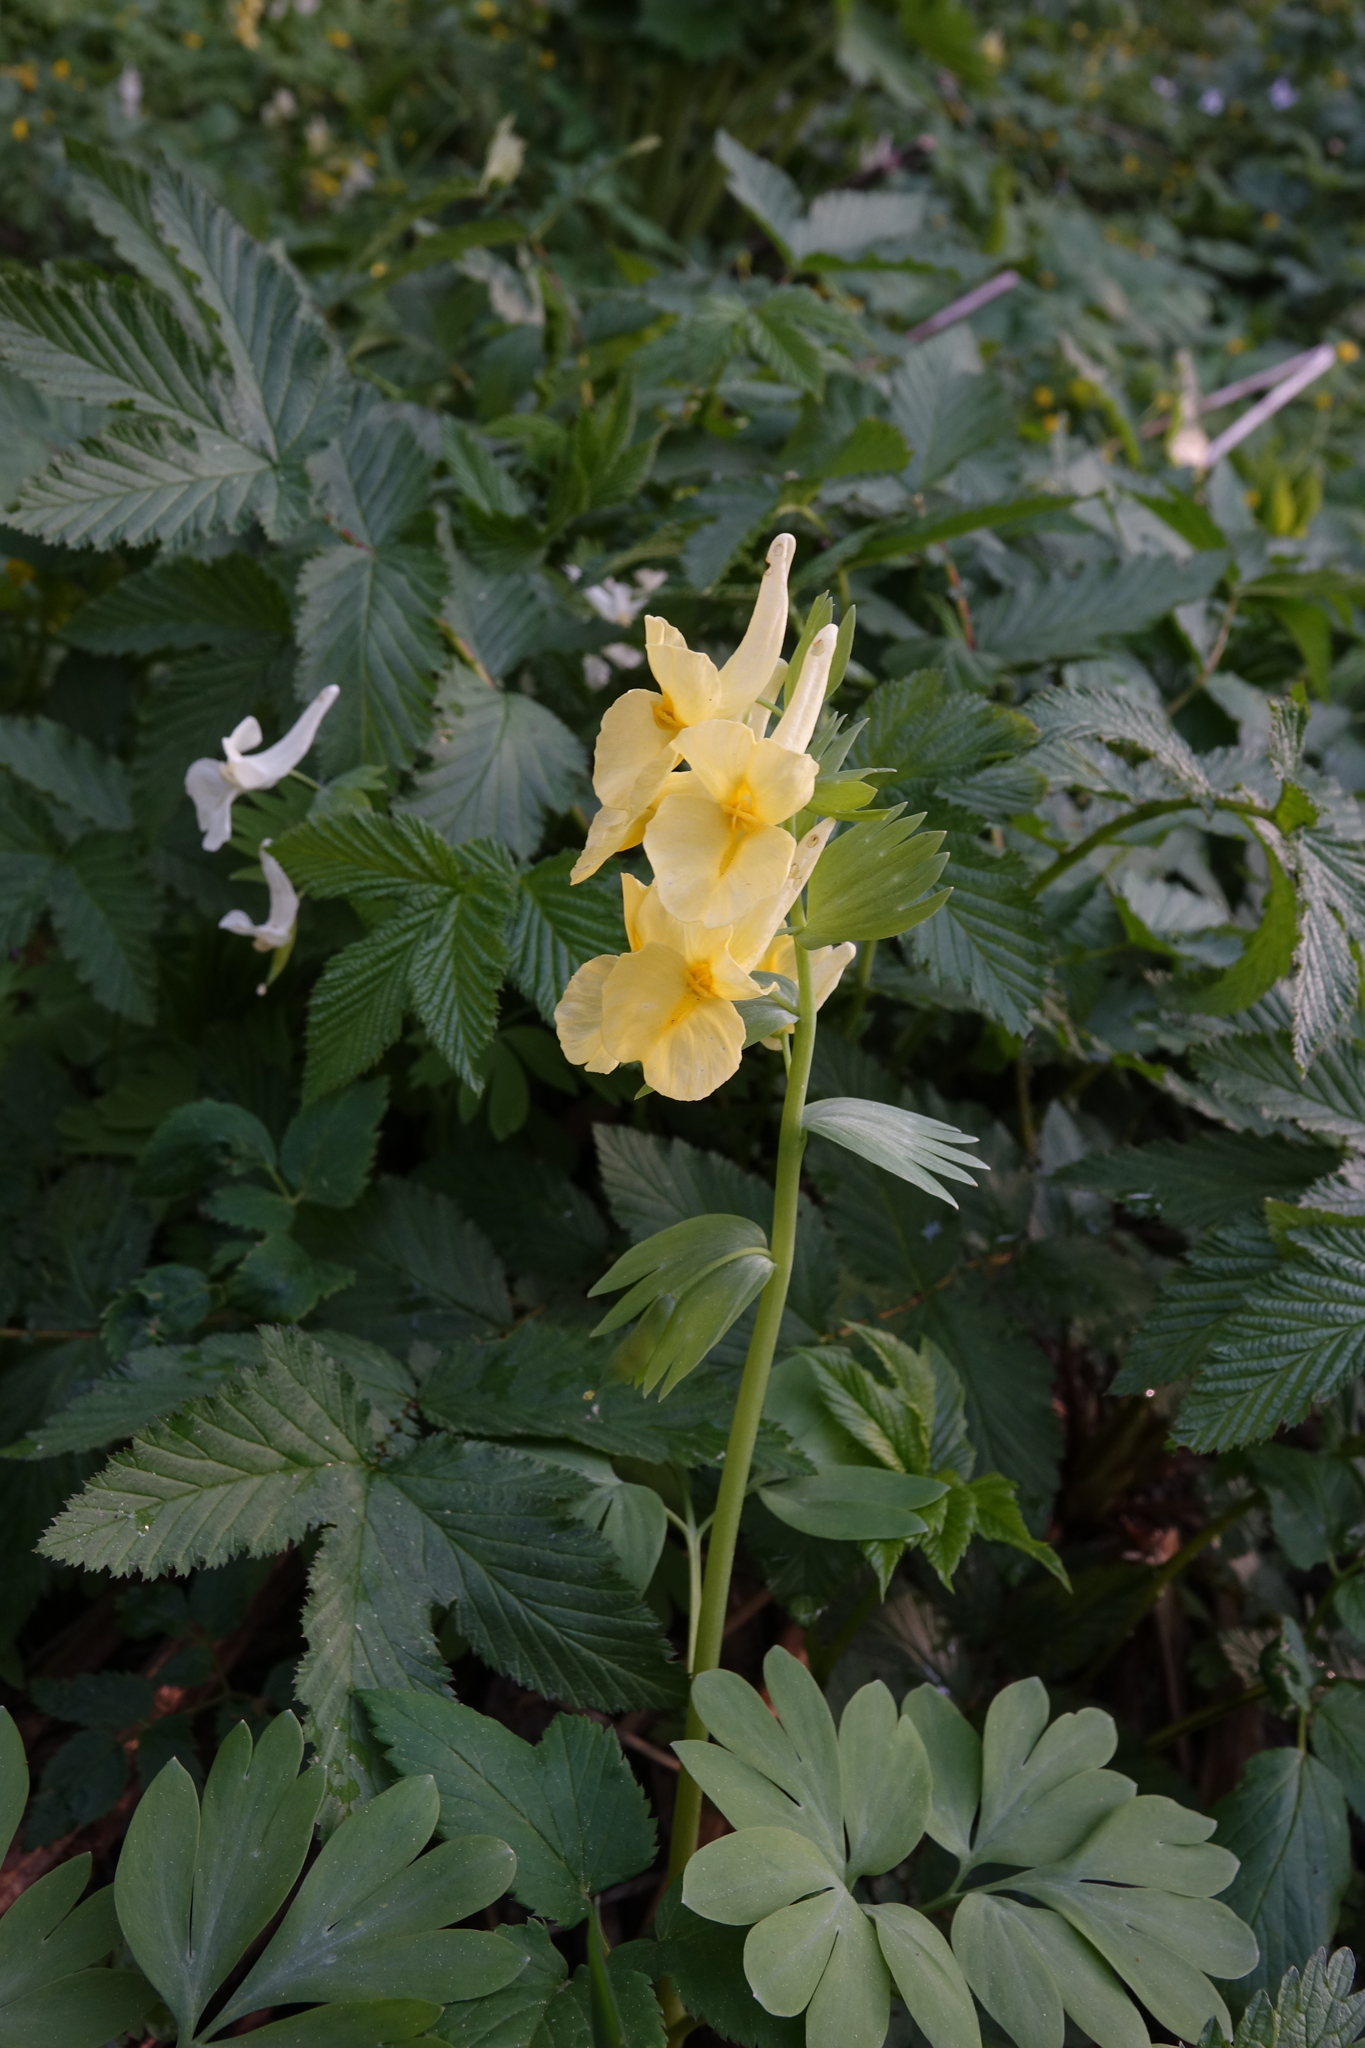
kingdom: Plantae
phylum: Tracheophyta
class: Magnoliopsida
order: Ranunculales
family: Papaveraceae
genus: Corydalis
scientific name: Corydalis bracteata
